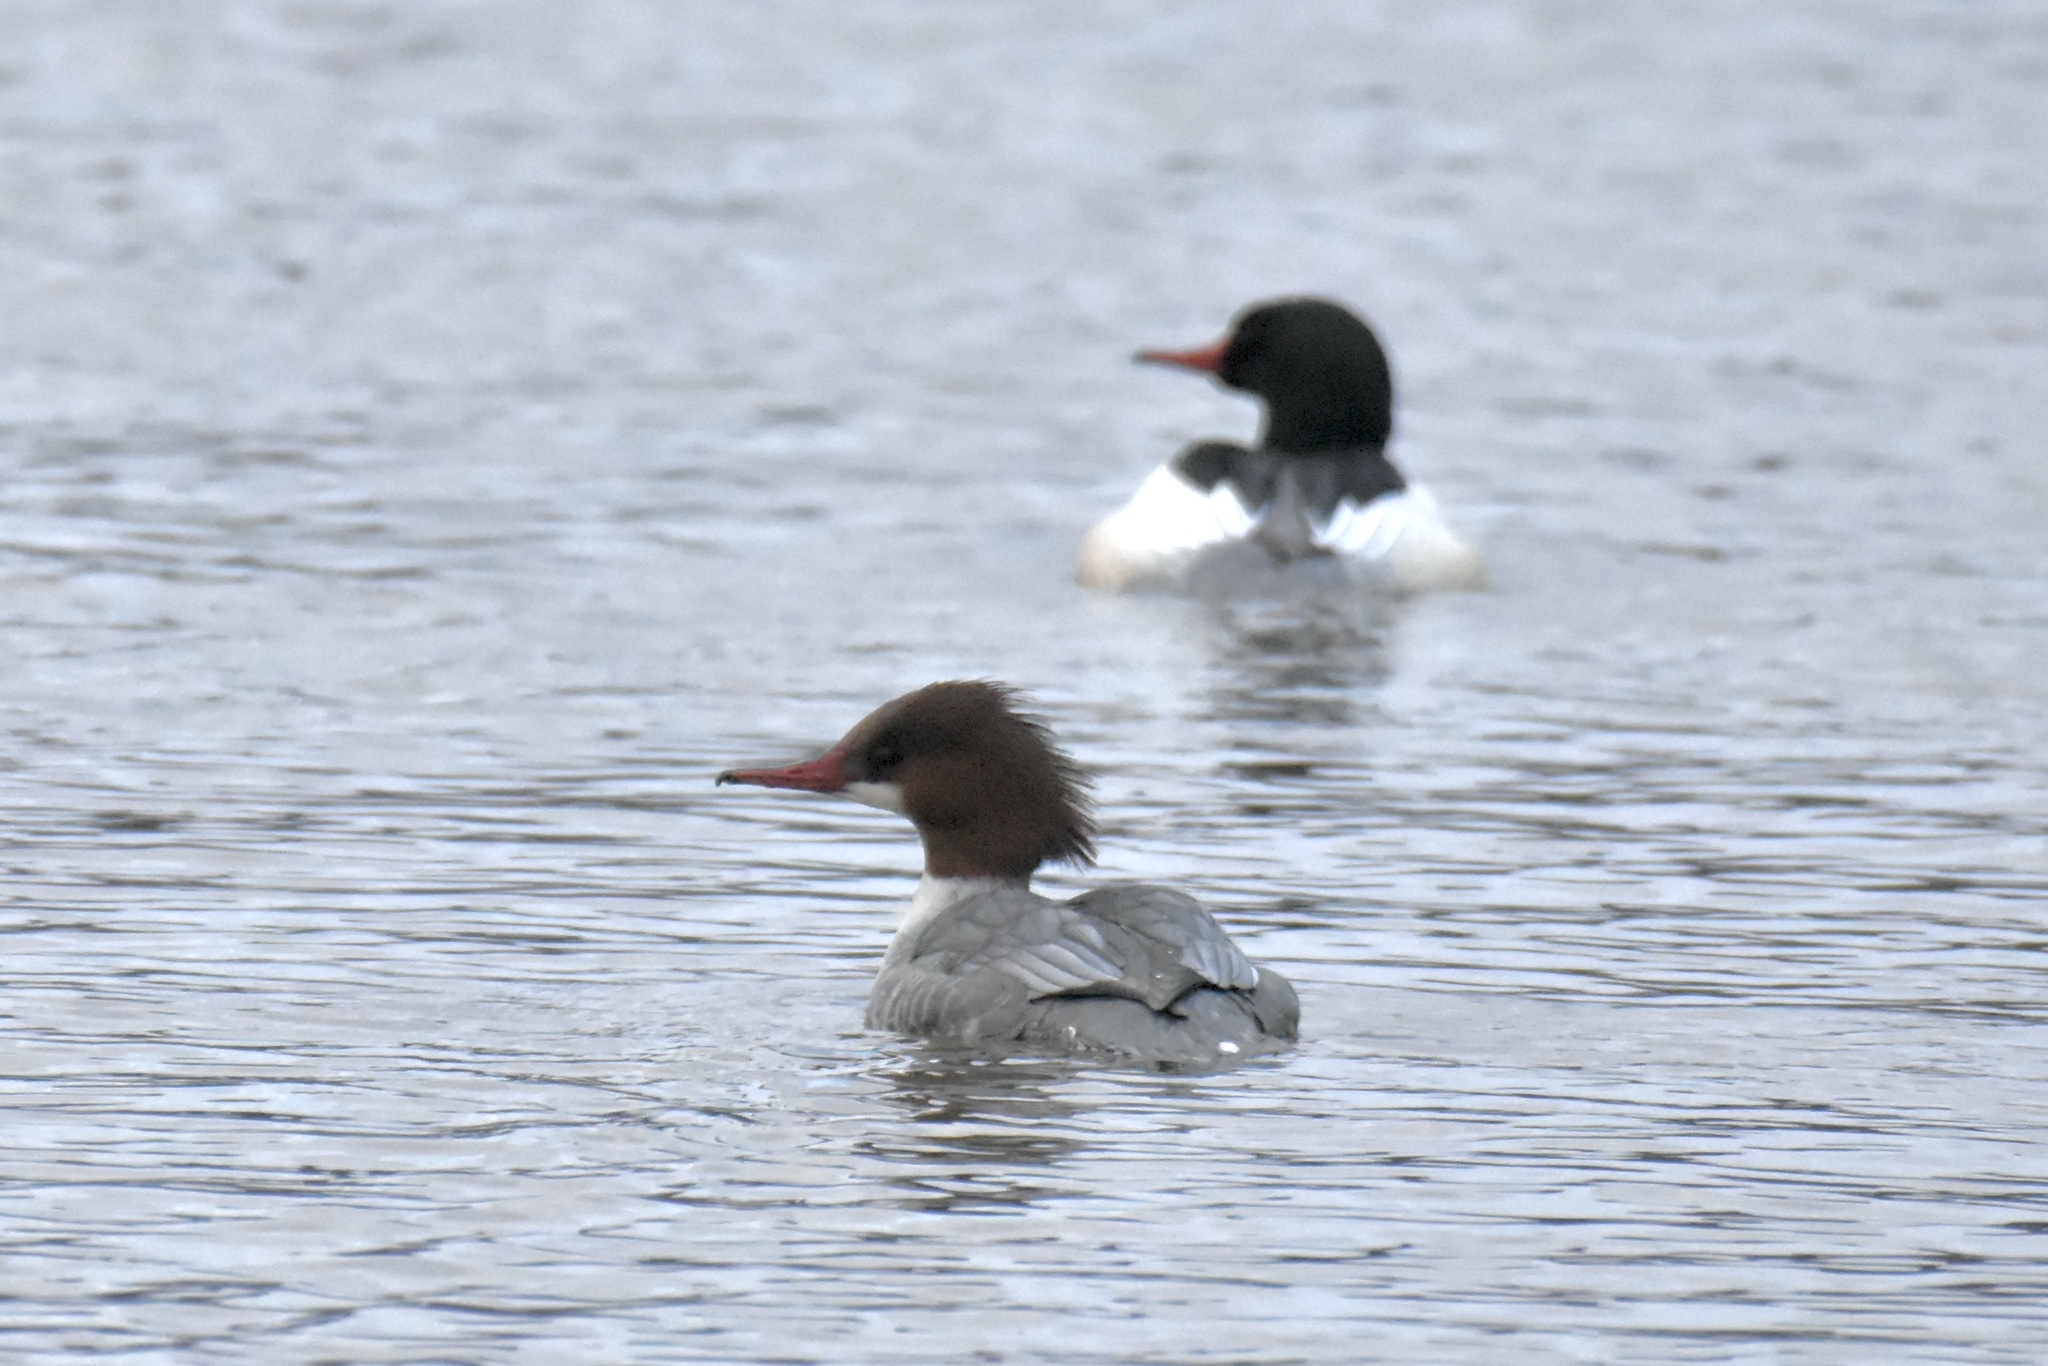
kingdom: Animalia
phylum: Chordata
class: Aves
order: Anseriformes
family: Anatidae
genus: Mergus
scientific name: Mergus merganser
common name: Common merganser
